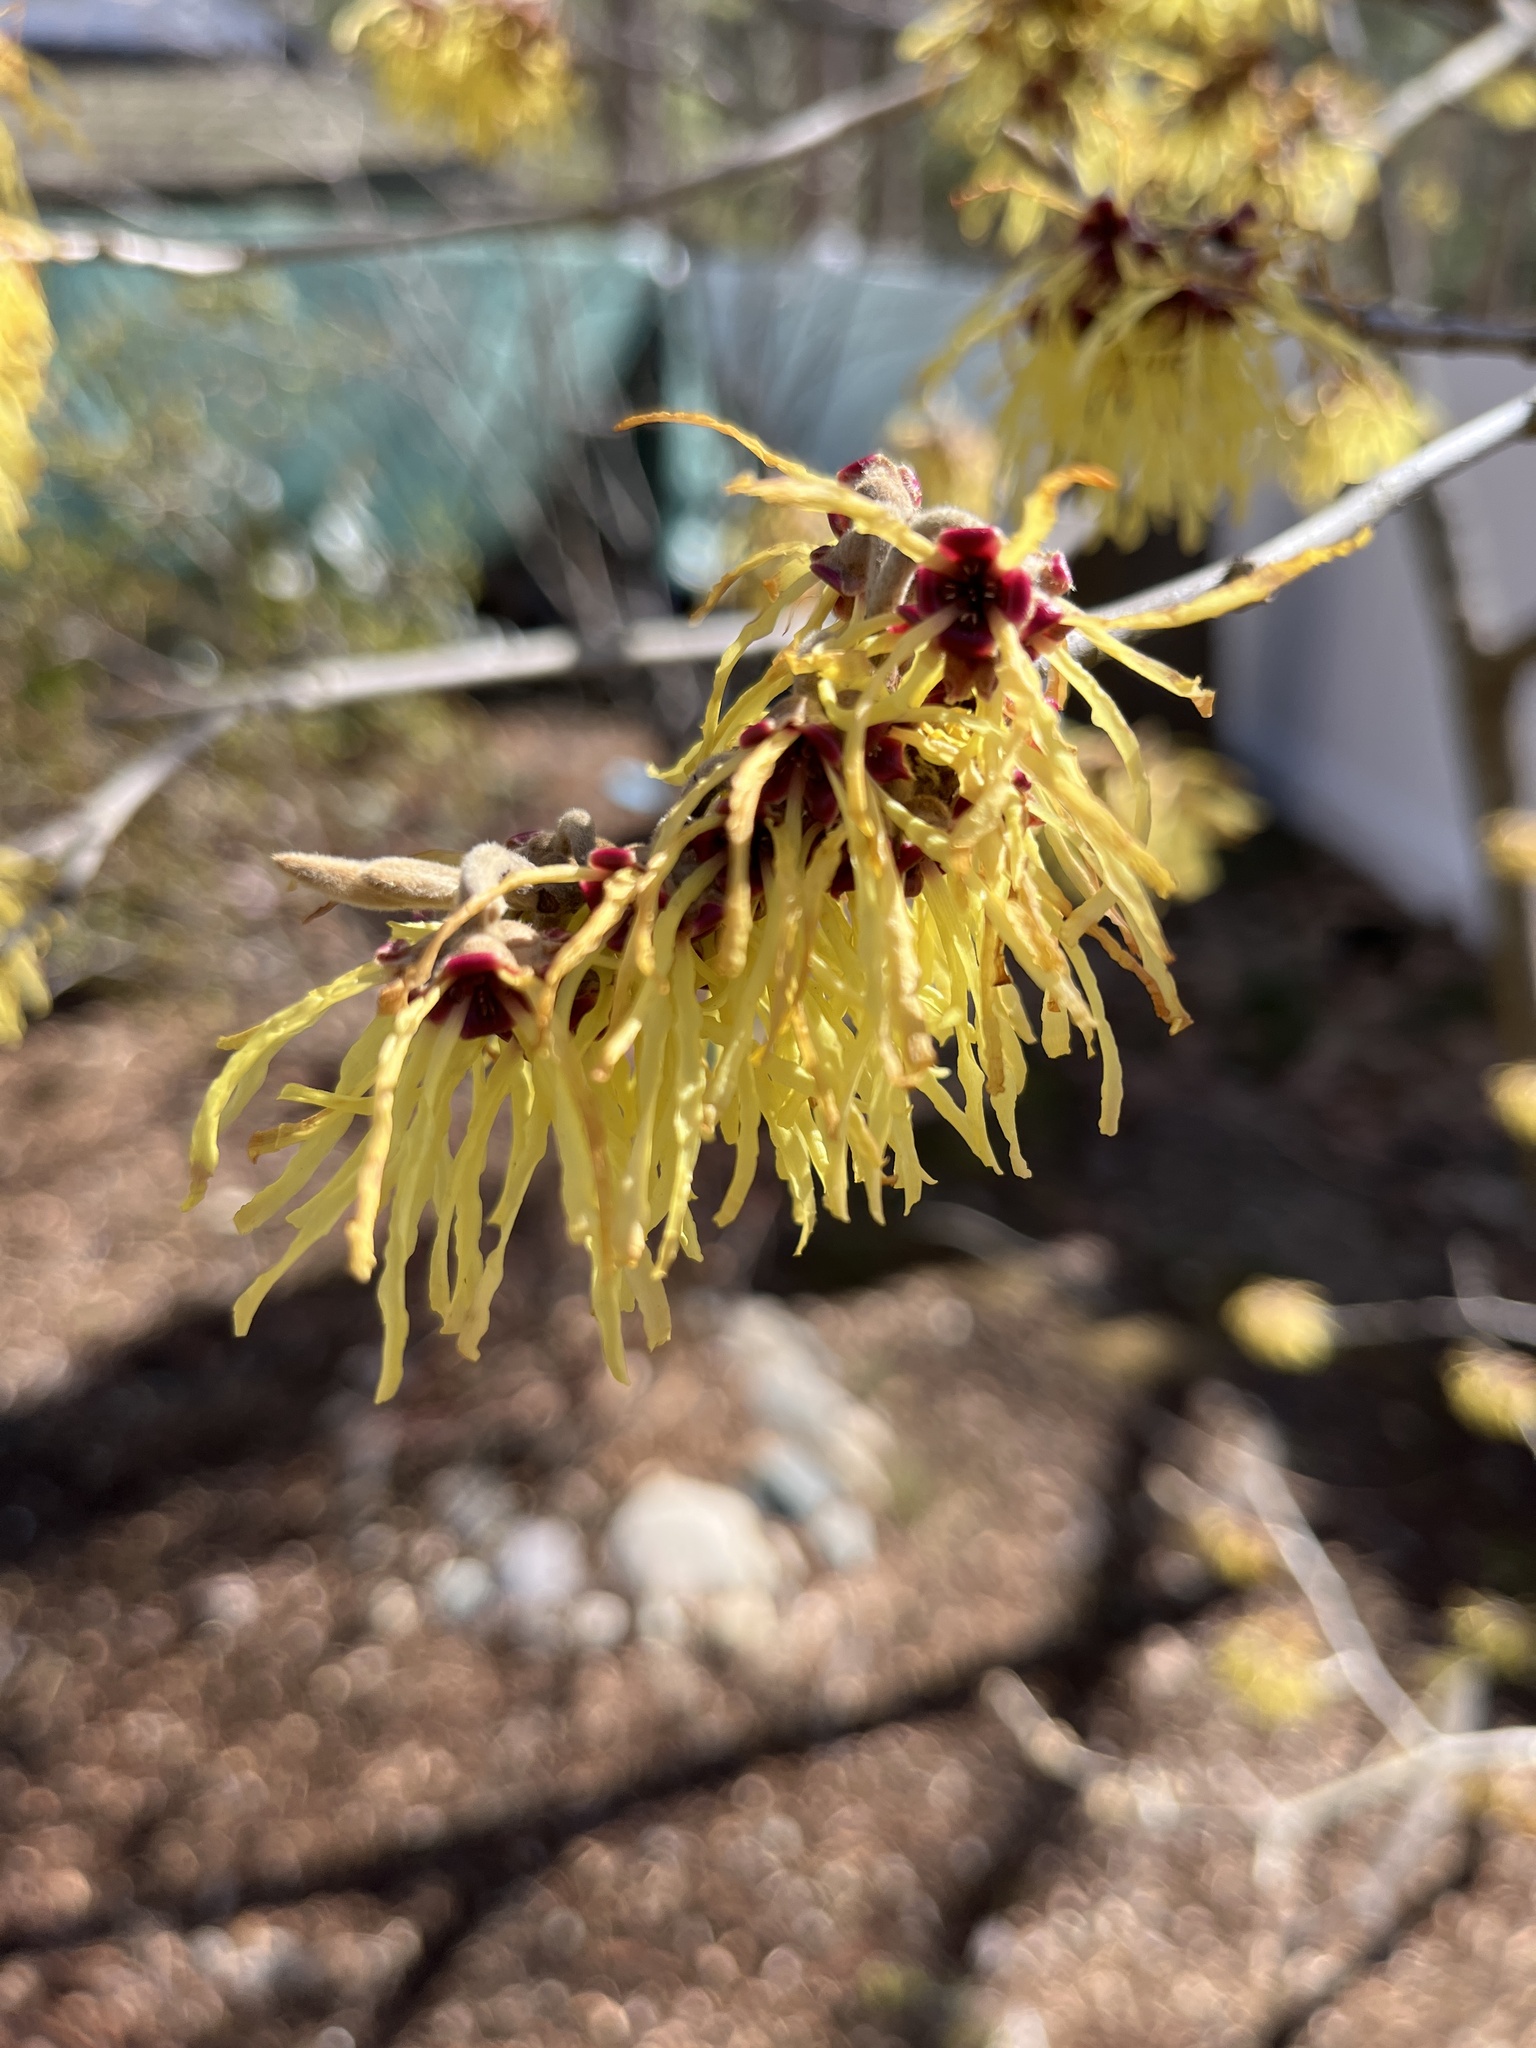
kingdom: Plantae
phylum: Tracheophyta
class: Magnoliopsida
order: Saxifragales
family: Hamamelidaceae
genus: Hamamelis
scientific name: Hamamelis mollis
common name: Chinese witch-hazel
